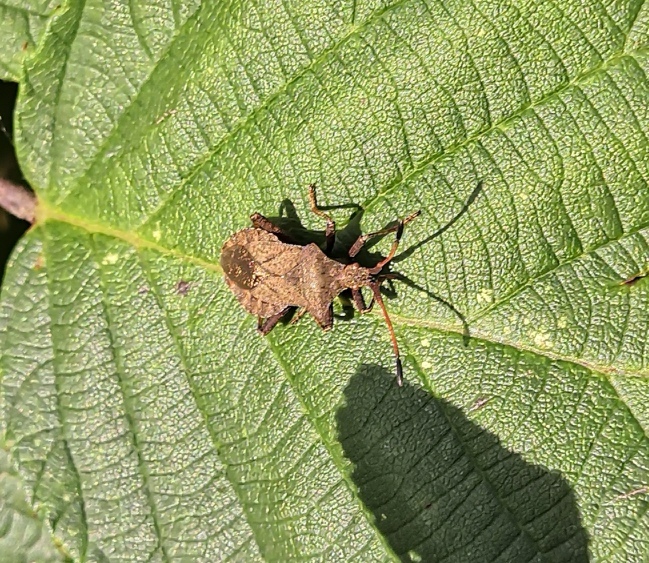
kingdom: Animalia
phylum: Arthropoda
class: Insecta
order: Hemiptera
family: Coreidae
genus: Coreus
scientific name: Coreus marginatus
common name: Dock bug
